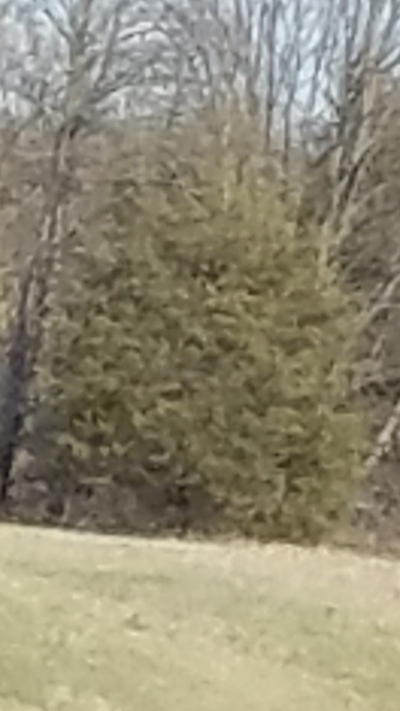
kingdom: Plantae
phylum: Tracheophyta
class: Pinopsida
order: Pinales
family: Cupressaceae
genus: Juniperus
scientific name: Juniperus virginiana
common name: Red juniper
